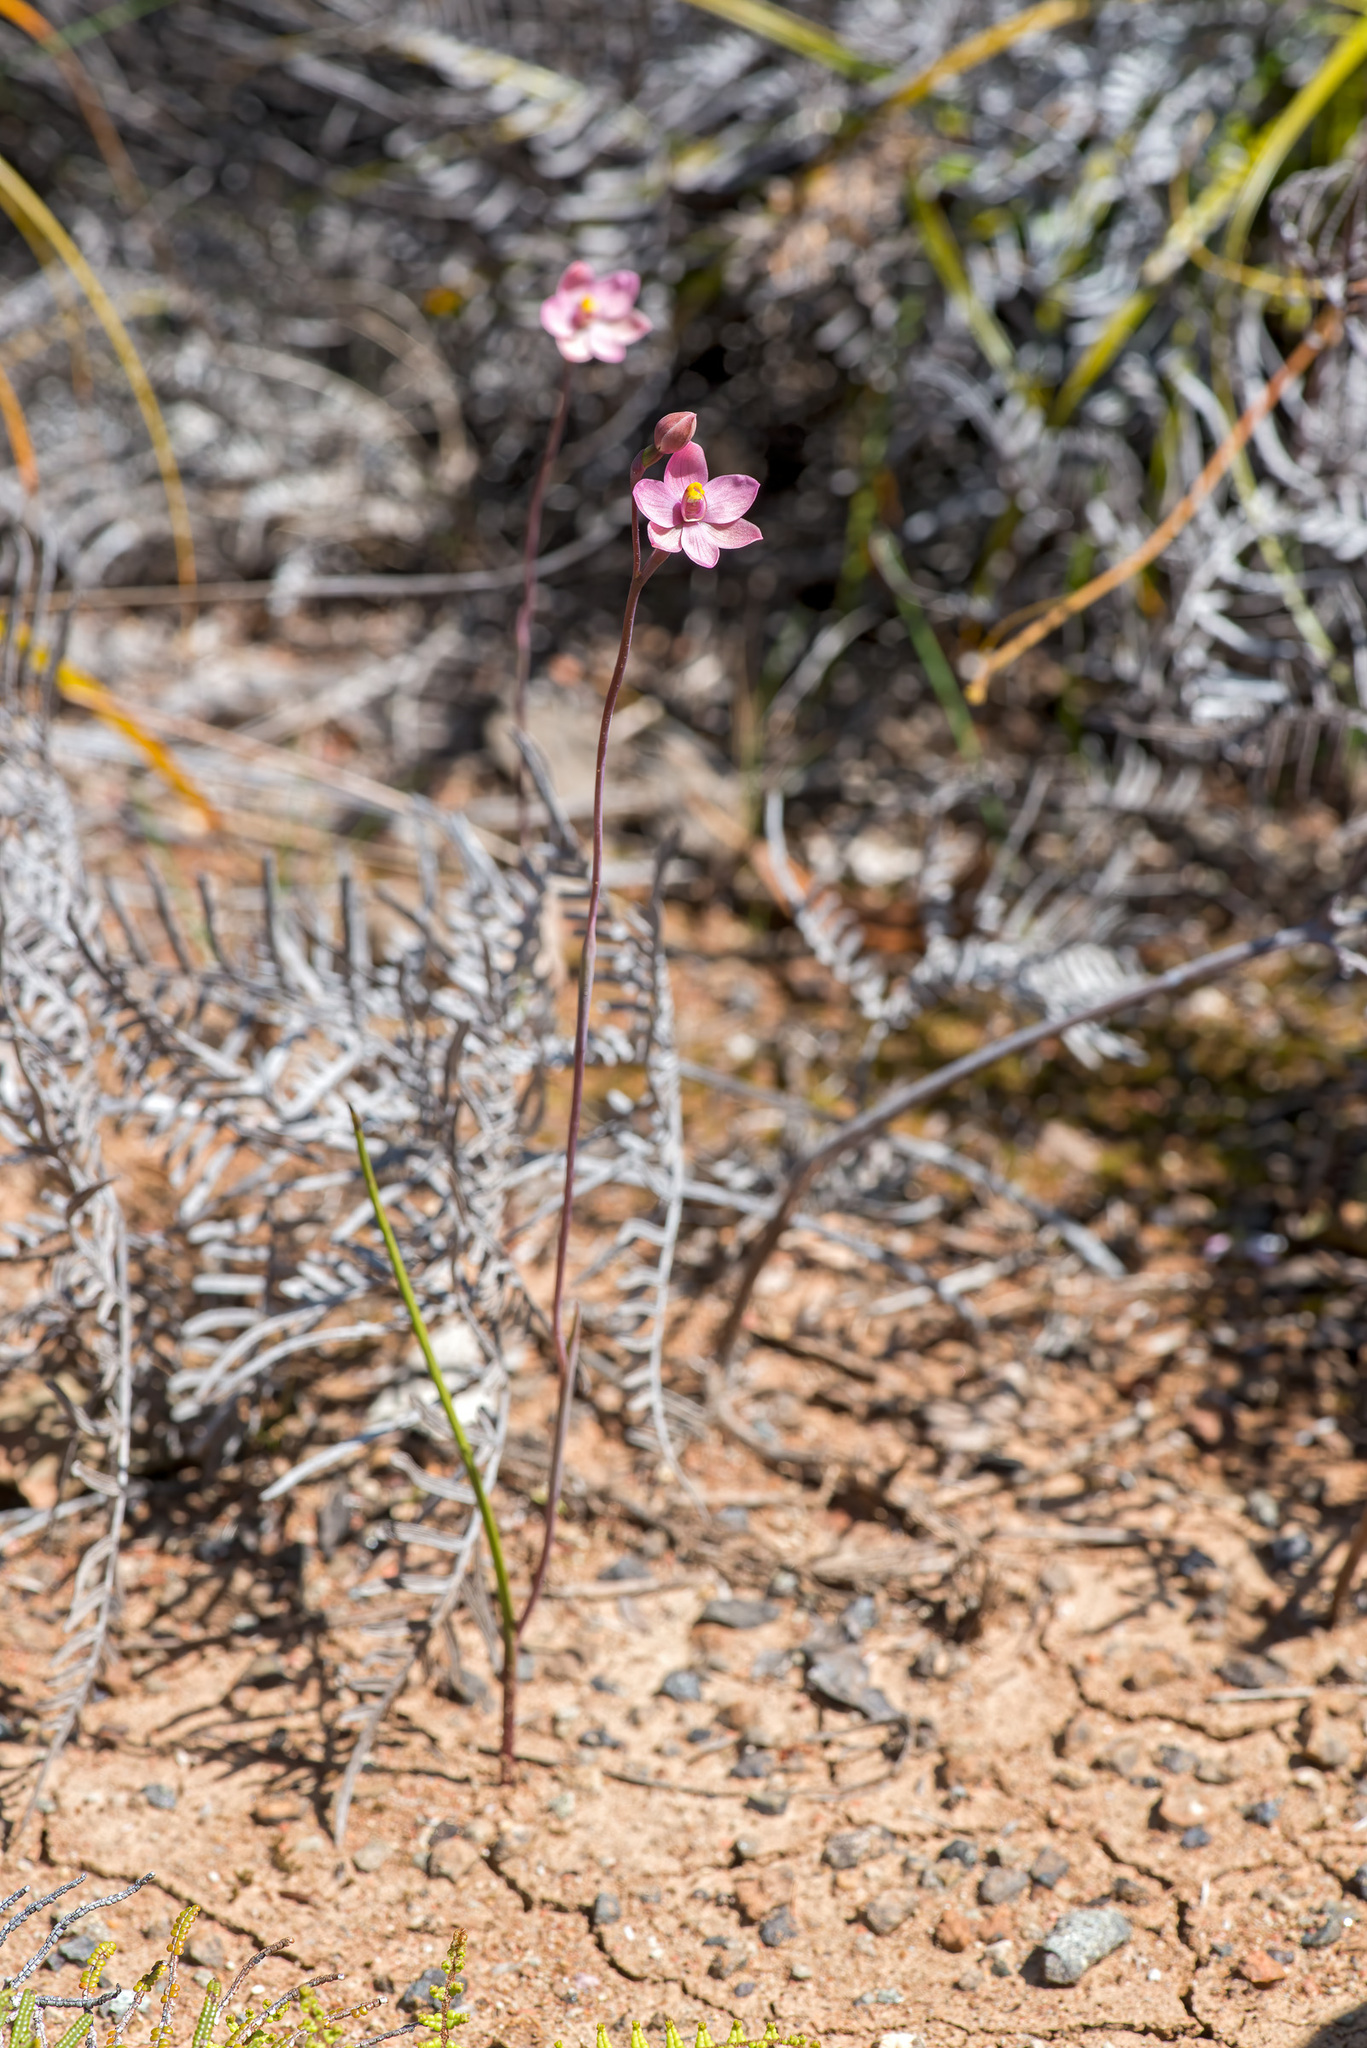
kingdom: Plantae
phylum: Tracheophyta
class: Liliopsida
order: Asparagales
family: Orchidaceae
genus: Thelymitra
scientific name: Thelymitra carnea
